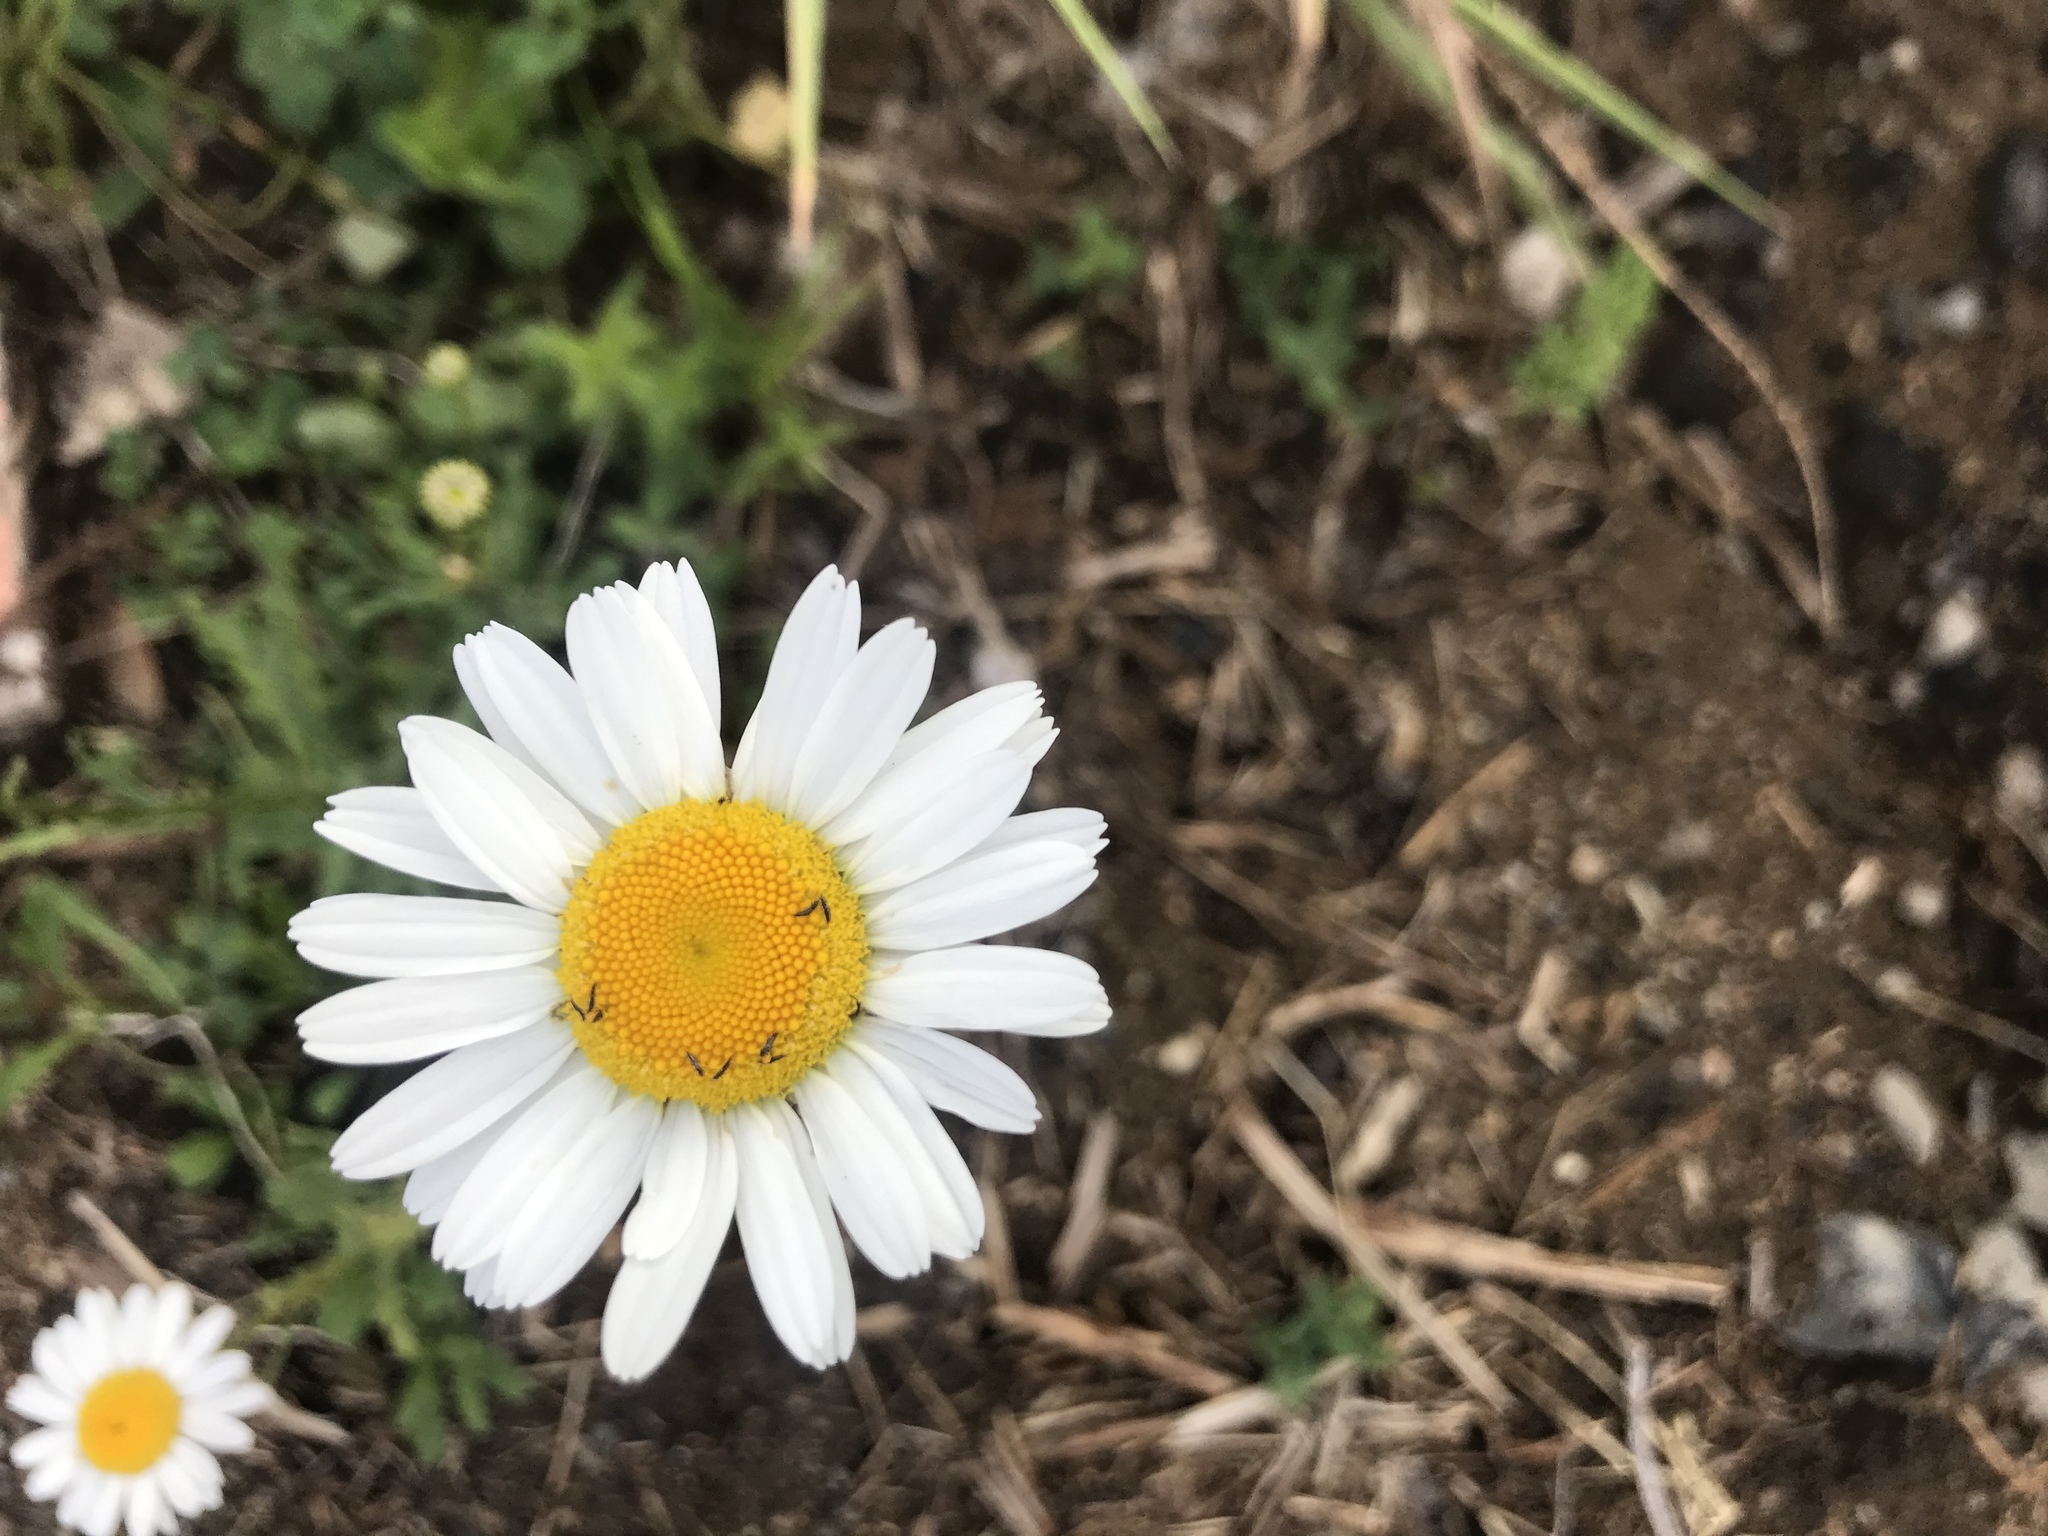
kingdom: Plantae
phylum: Tracheophyta
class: Magnoliopsida
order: Asterales
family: Asteraceae
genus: Leucanthemum
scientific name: Leucanthemum vulgare
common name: Oxeye daisy
